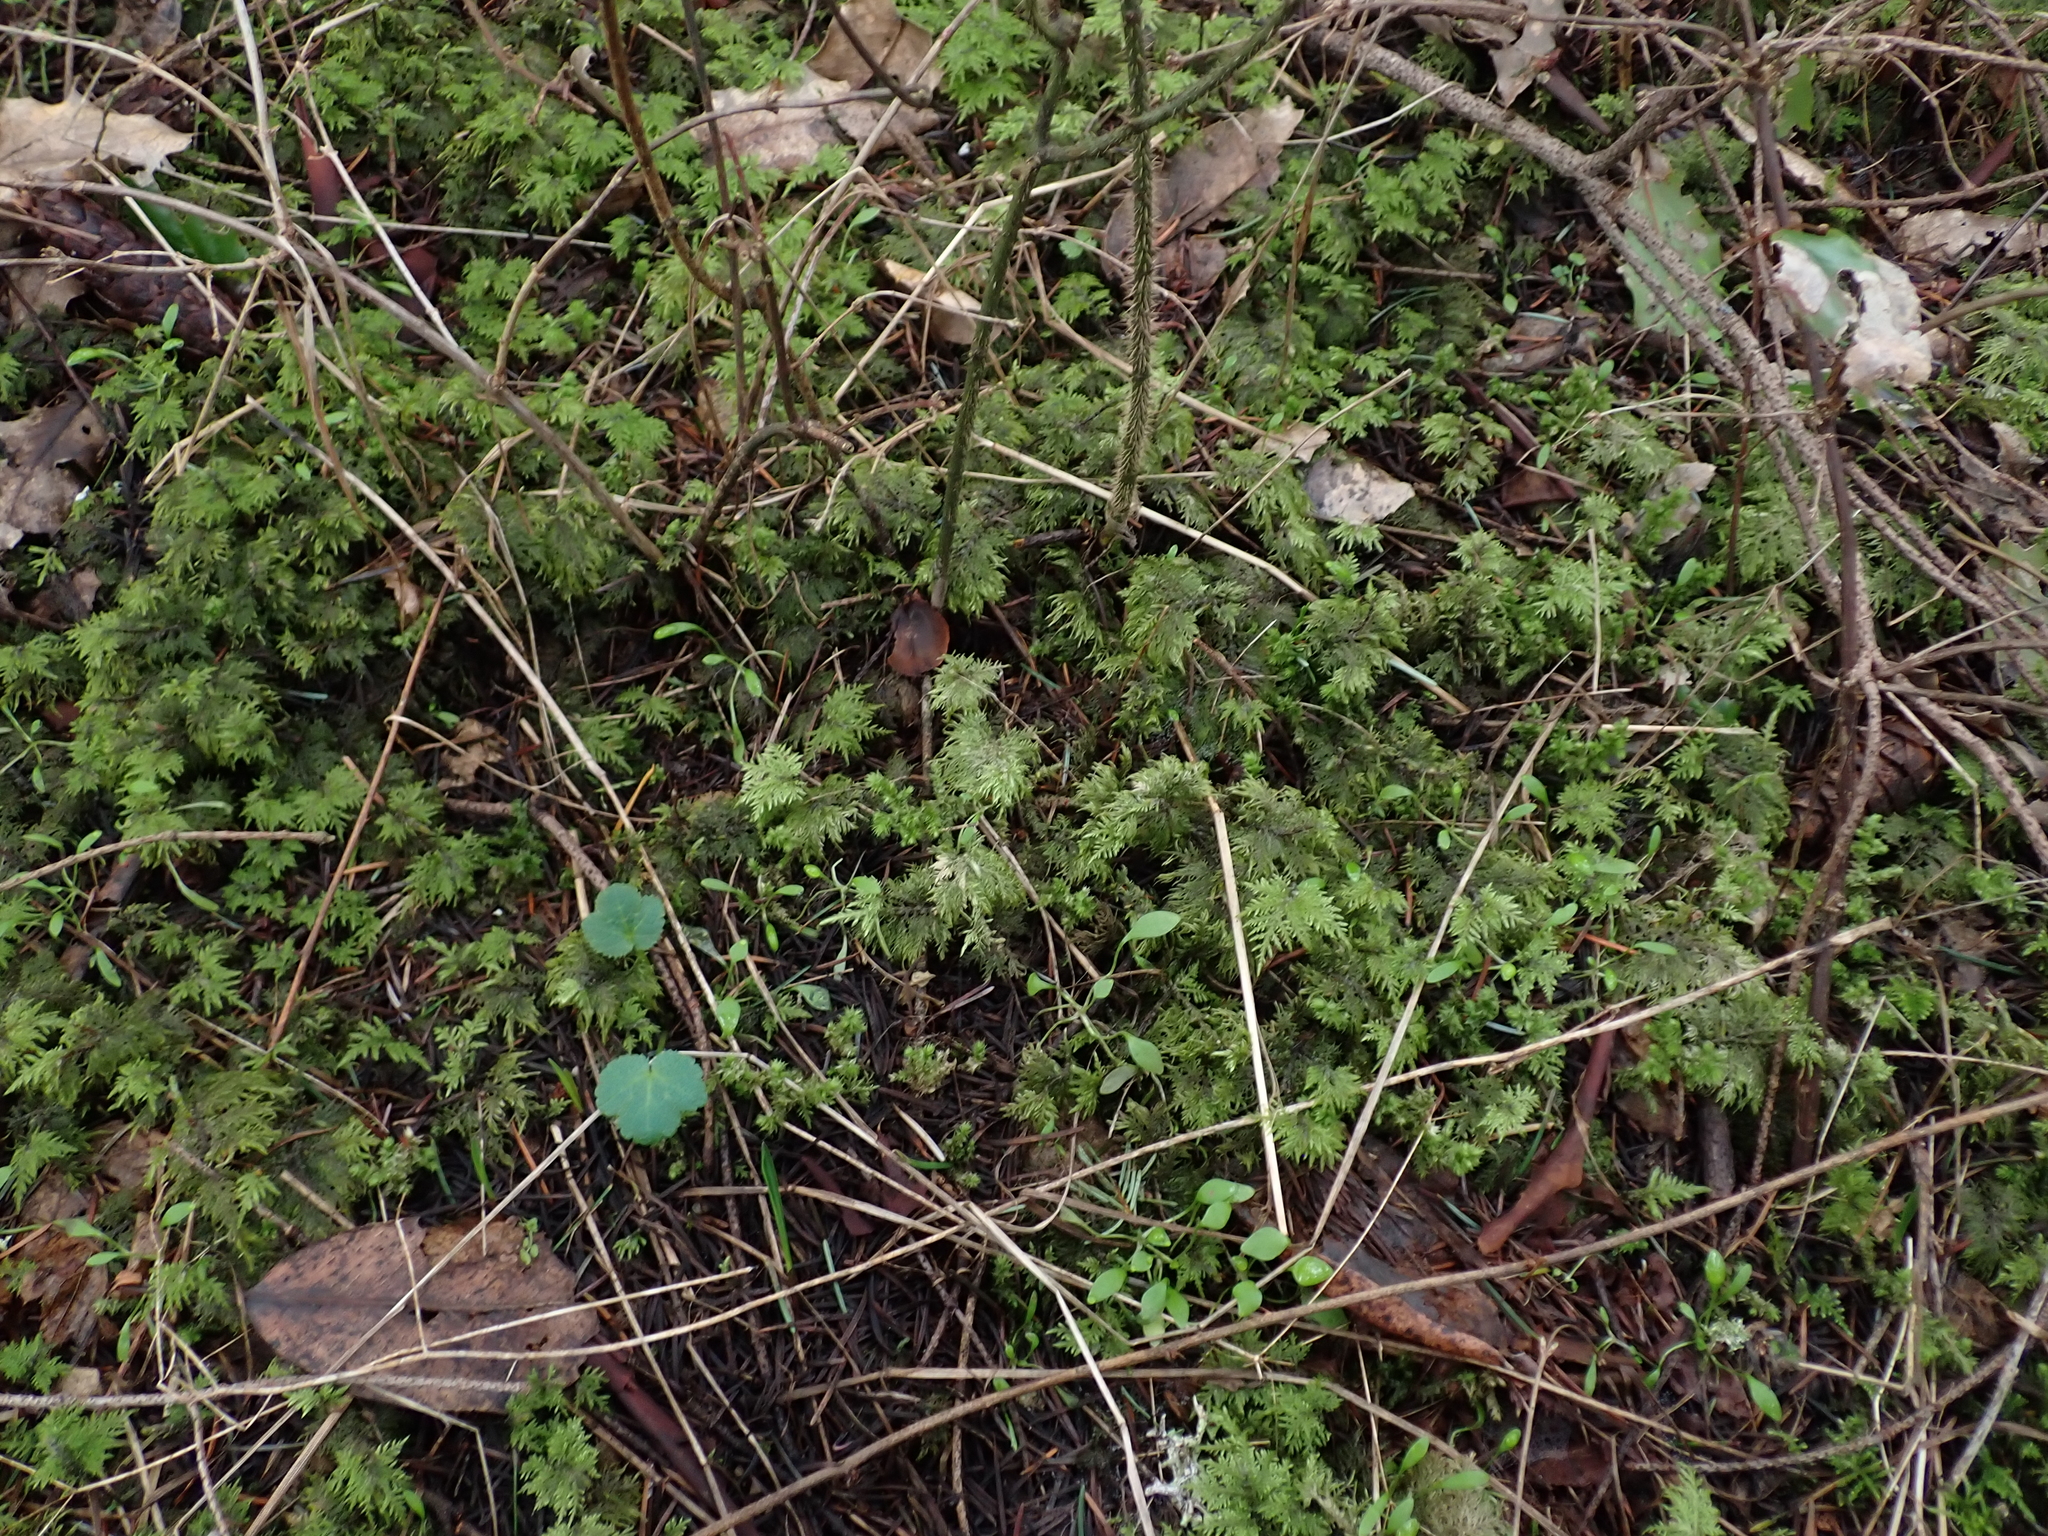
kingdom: Plantae
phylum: Bryophyta
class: Bryopsida
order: Hypnales
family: Hylocomiaceae
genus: Hylocomium
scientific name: Hylocomium splendens
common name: Stairstep moss
